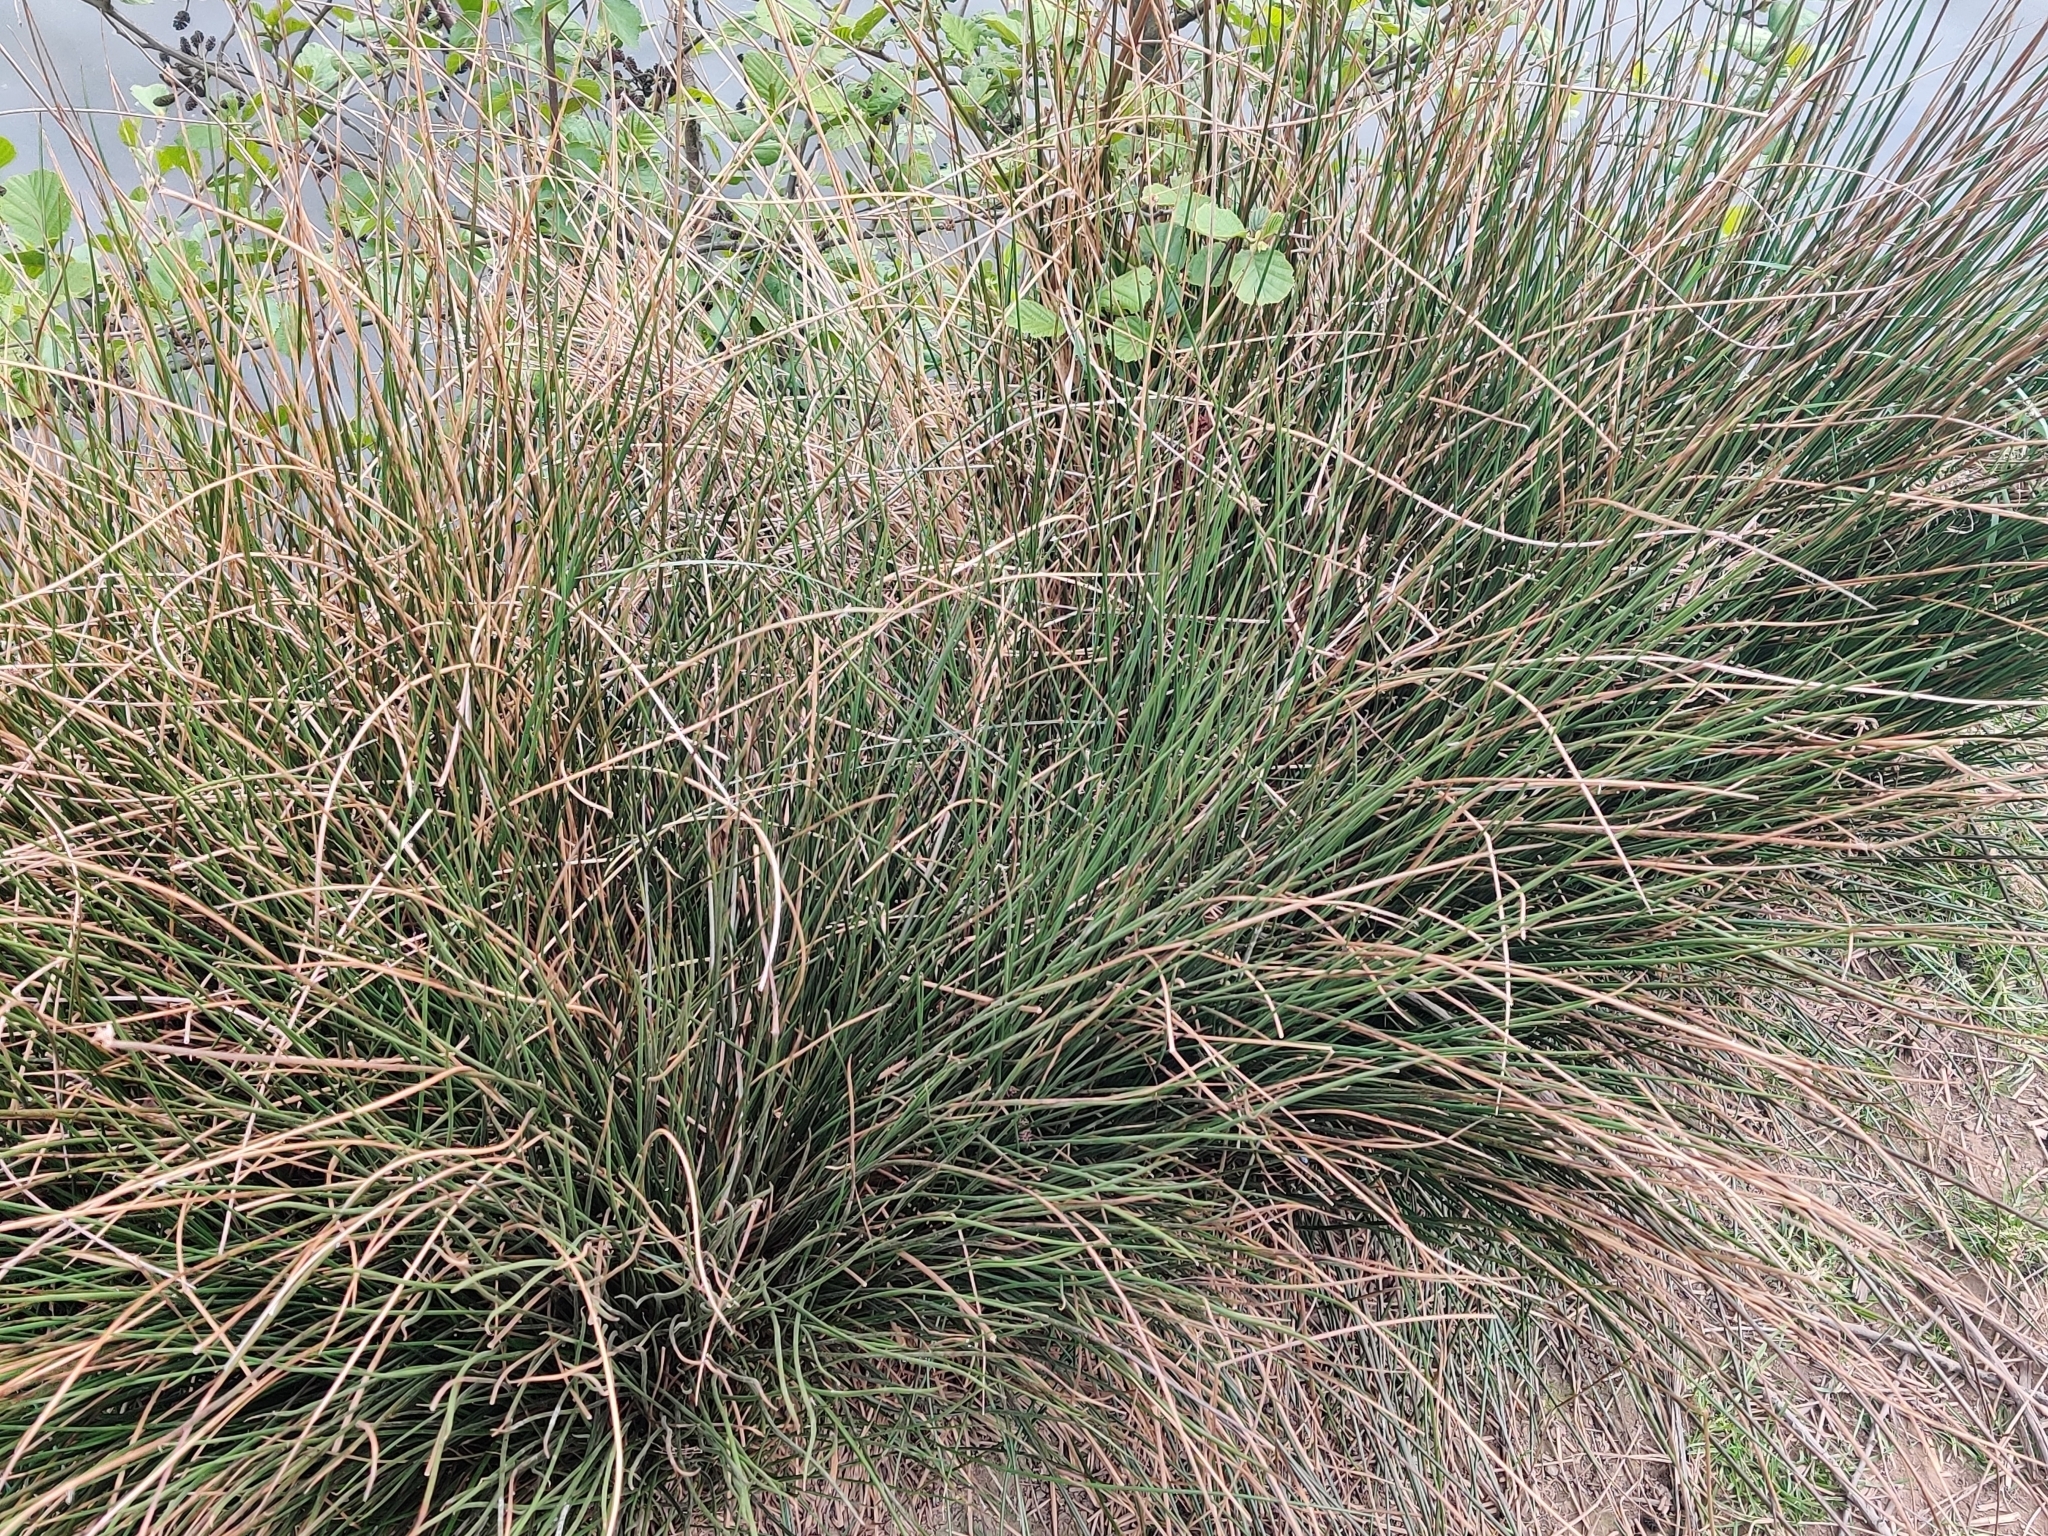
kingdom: Plantae
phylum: Tracheophyta
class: Liliopsida
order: Poales
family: Juncaceae
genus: Juncus
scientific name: Juncus inflexus
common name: Hard rush
